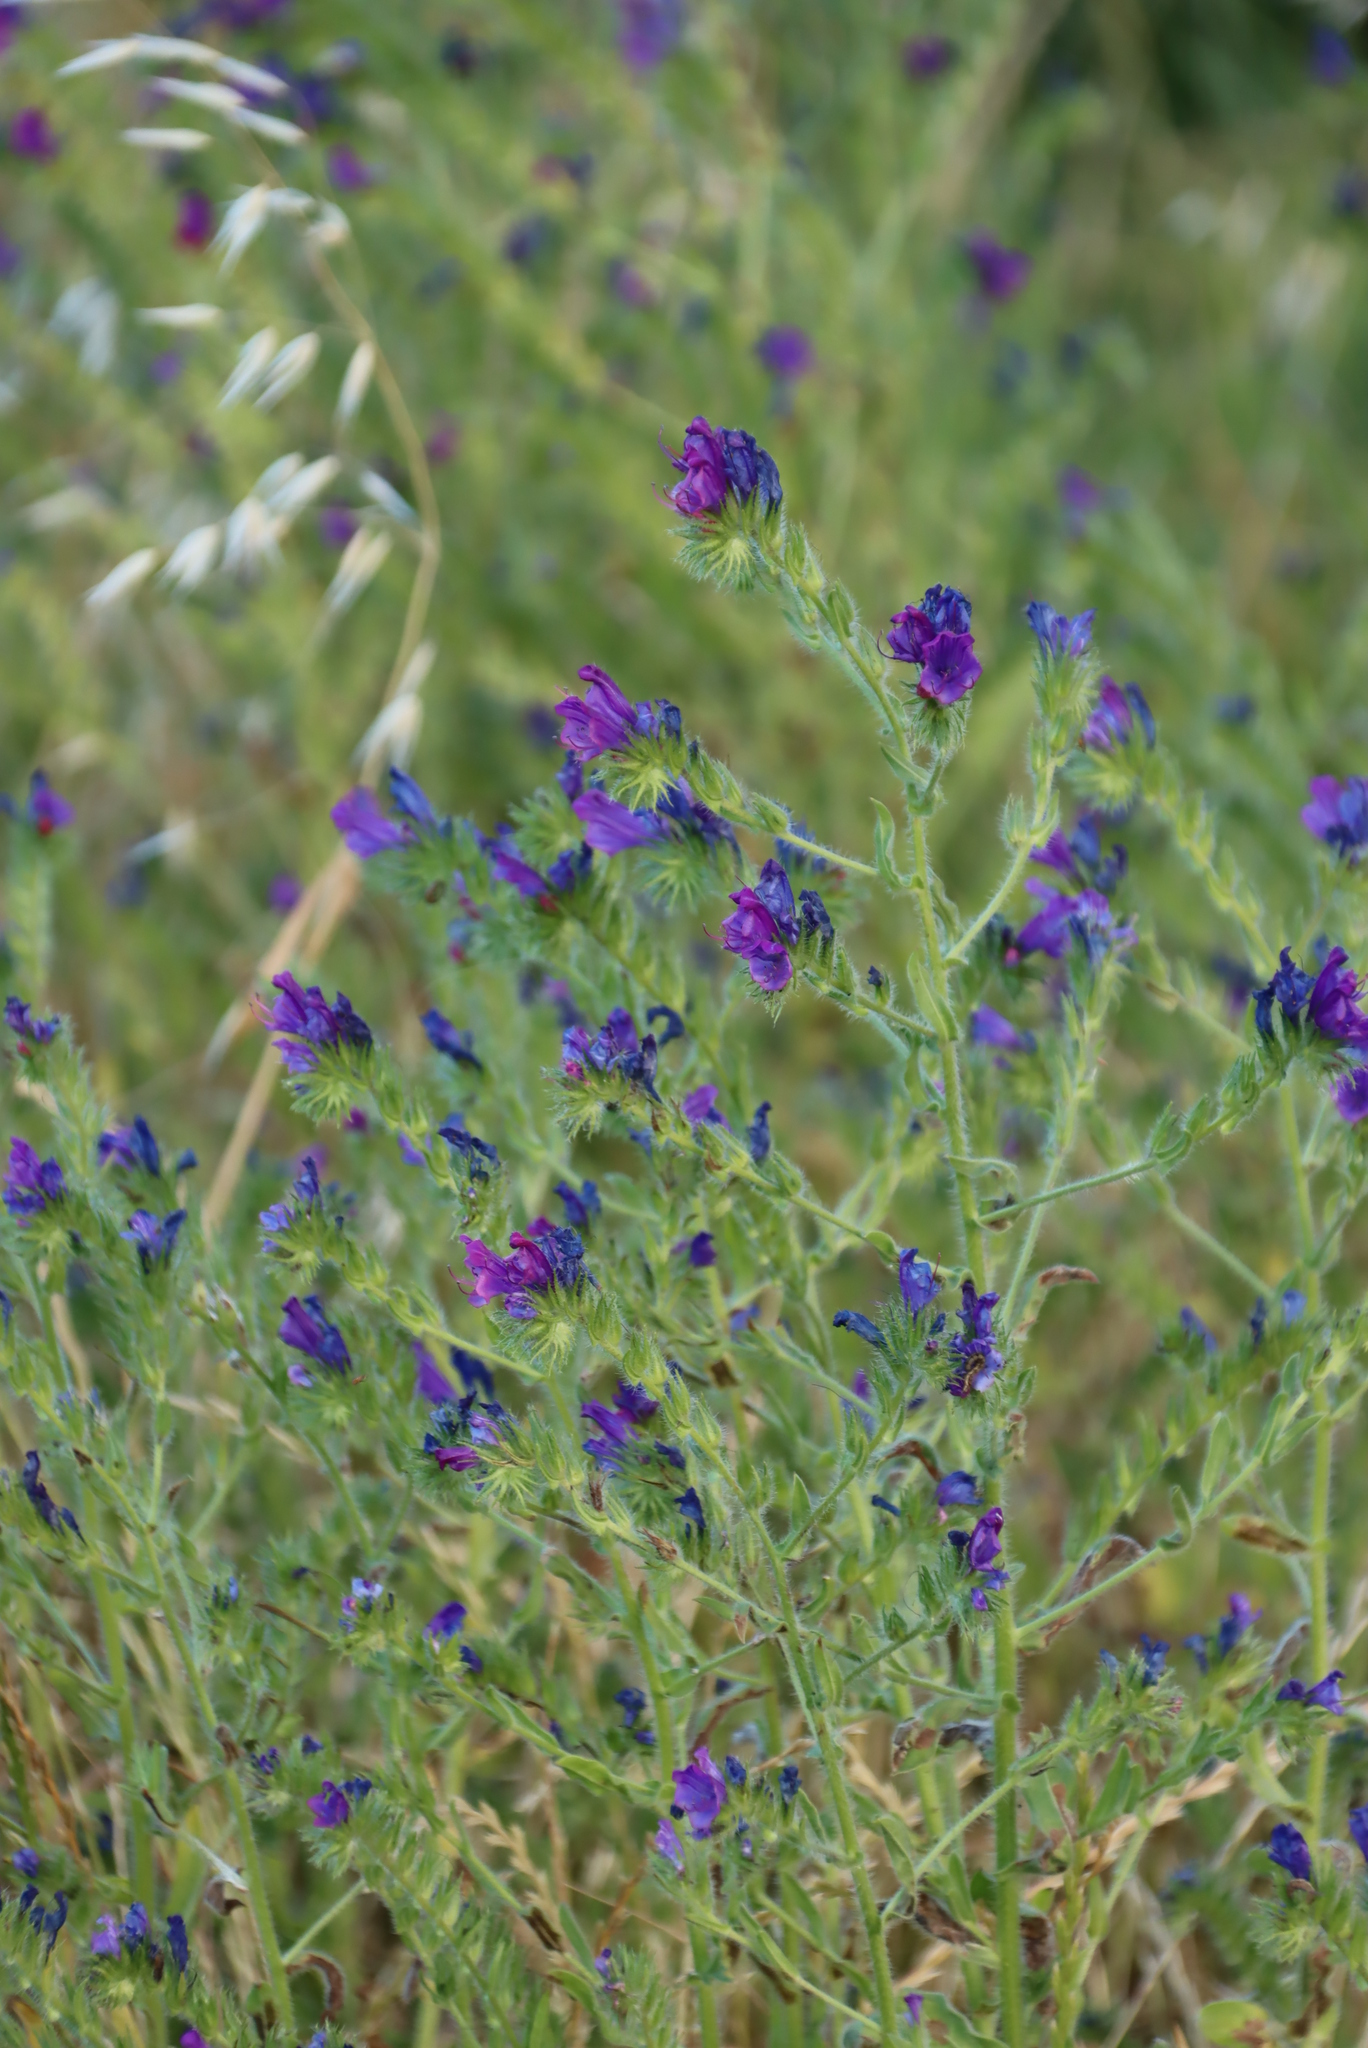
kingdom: Plantae
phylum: Tracheophyta
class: Magnoliopsida
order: Boraginales
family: Boraginaceae
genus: Echium
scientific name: Echium plantagineum
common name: Purple viper's-bugloss
